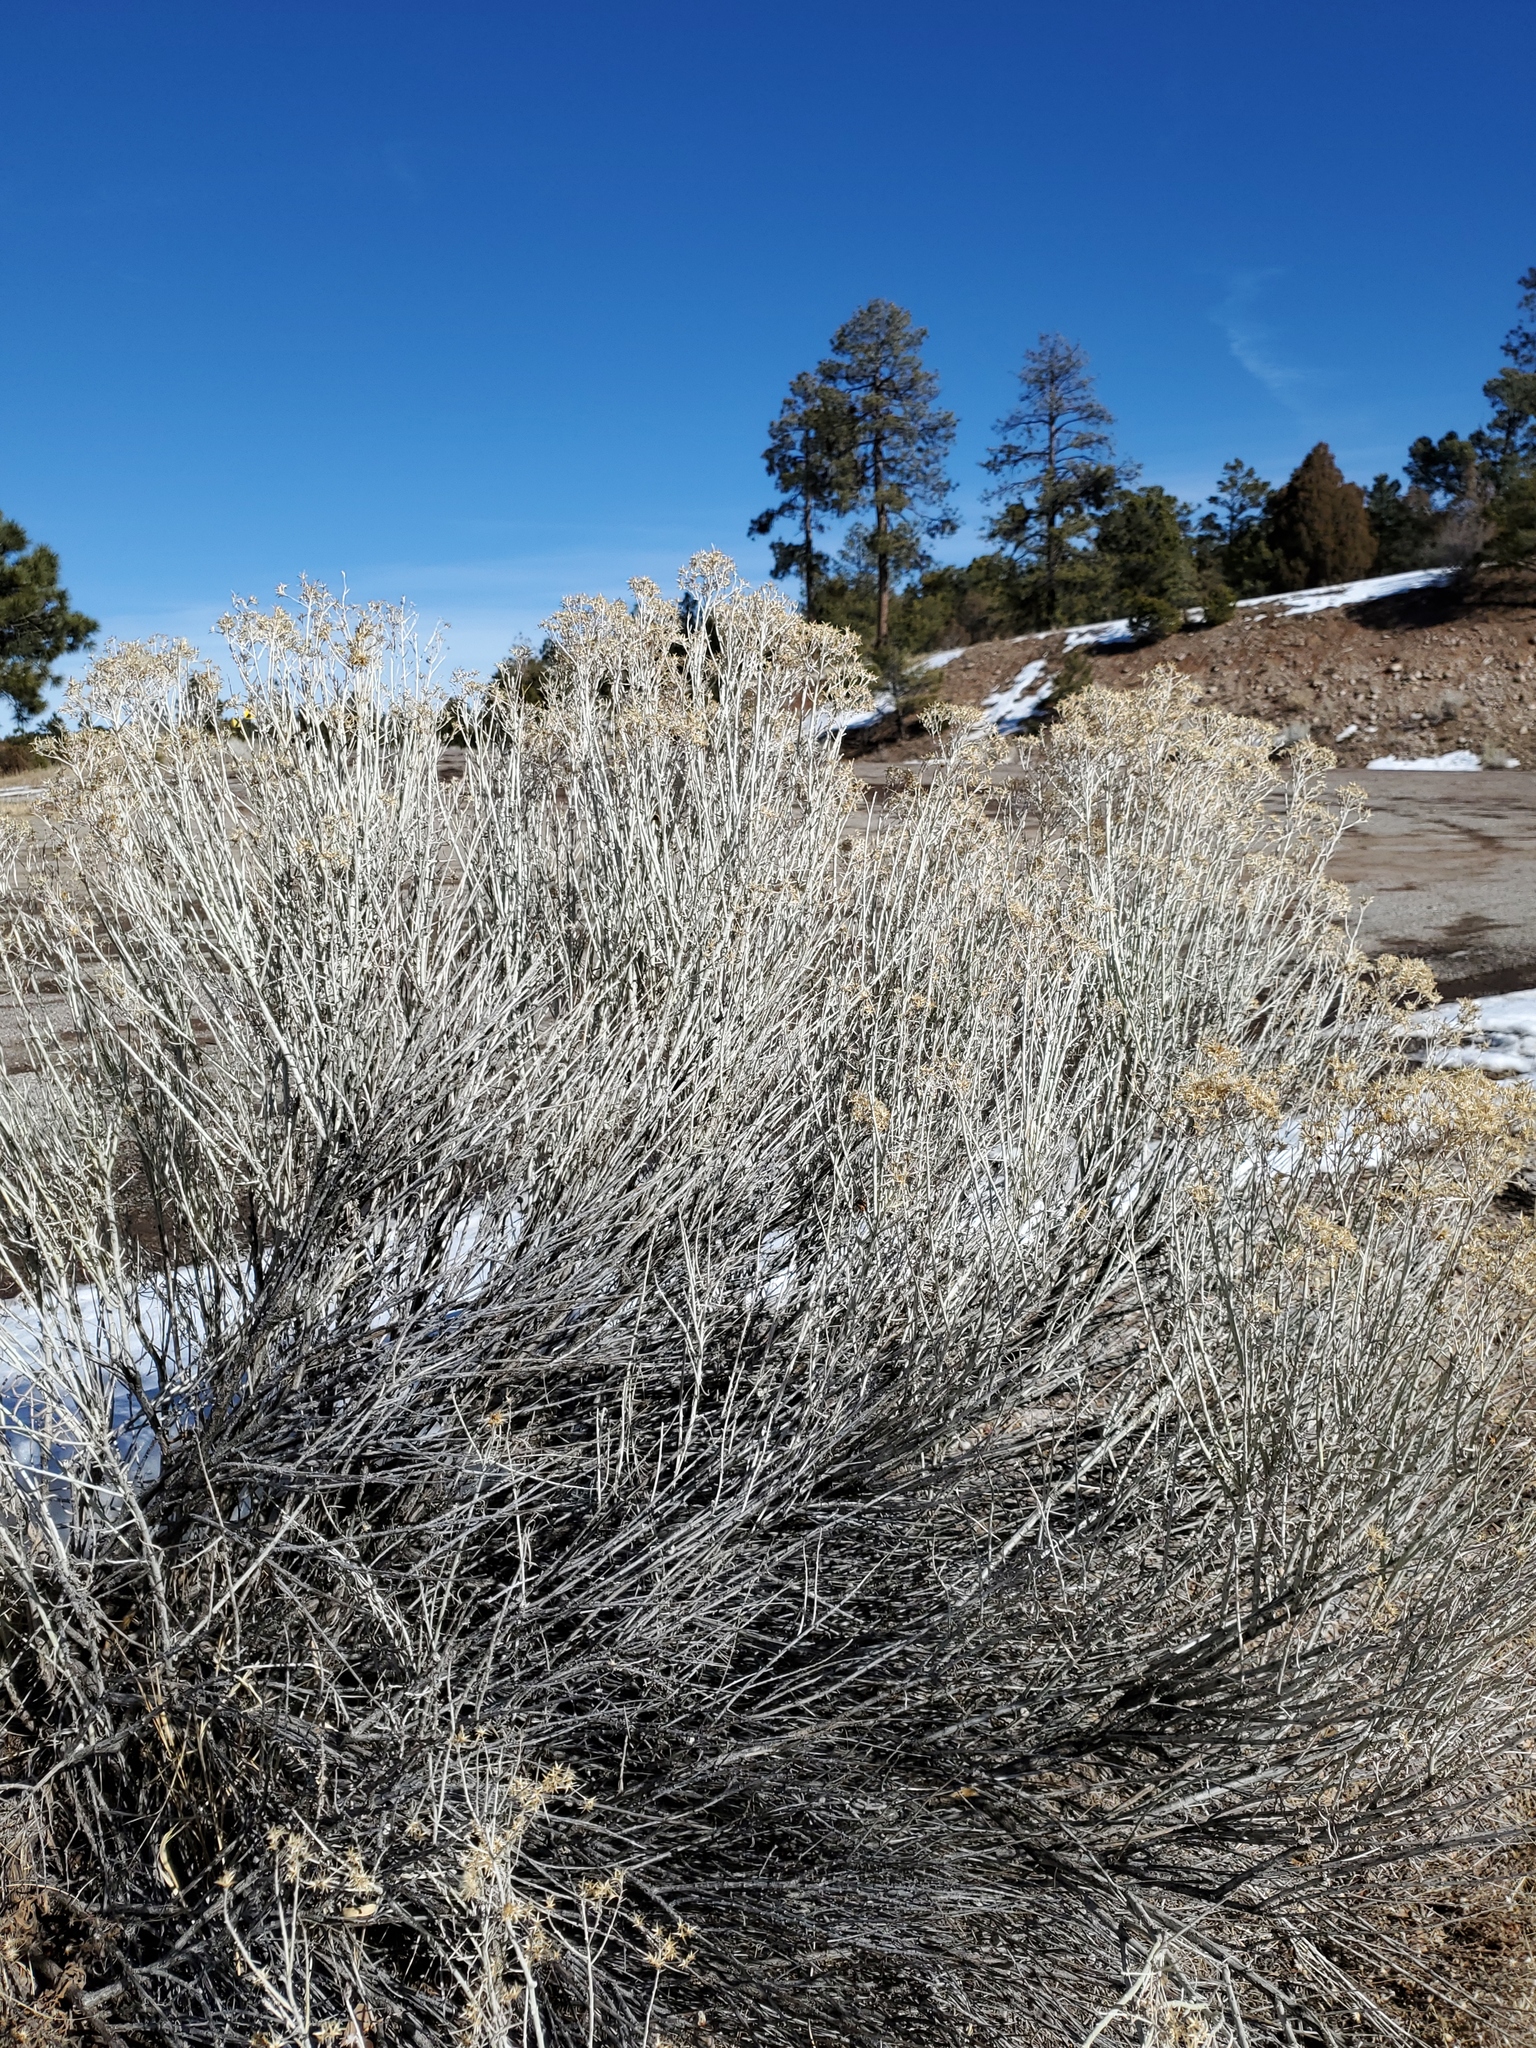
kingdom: Plantae
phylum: Tracheophyta
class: Magnoliopsida
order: Asterales
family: Asteraceae
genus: Ericameria
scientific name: Ericameria nauseosa
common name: Rubber rabbitbrush
